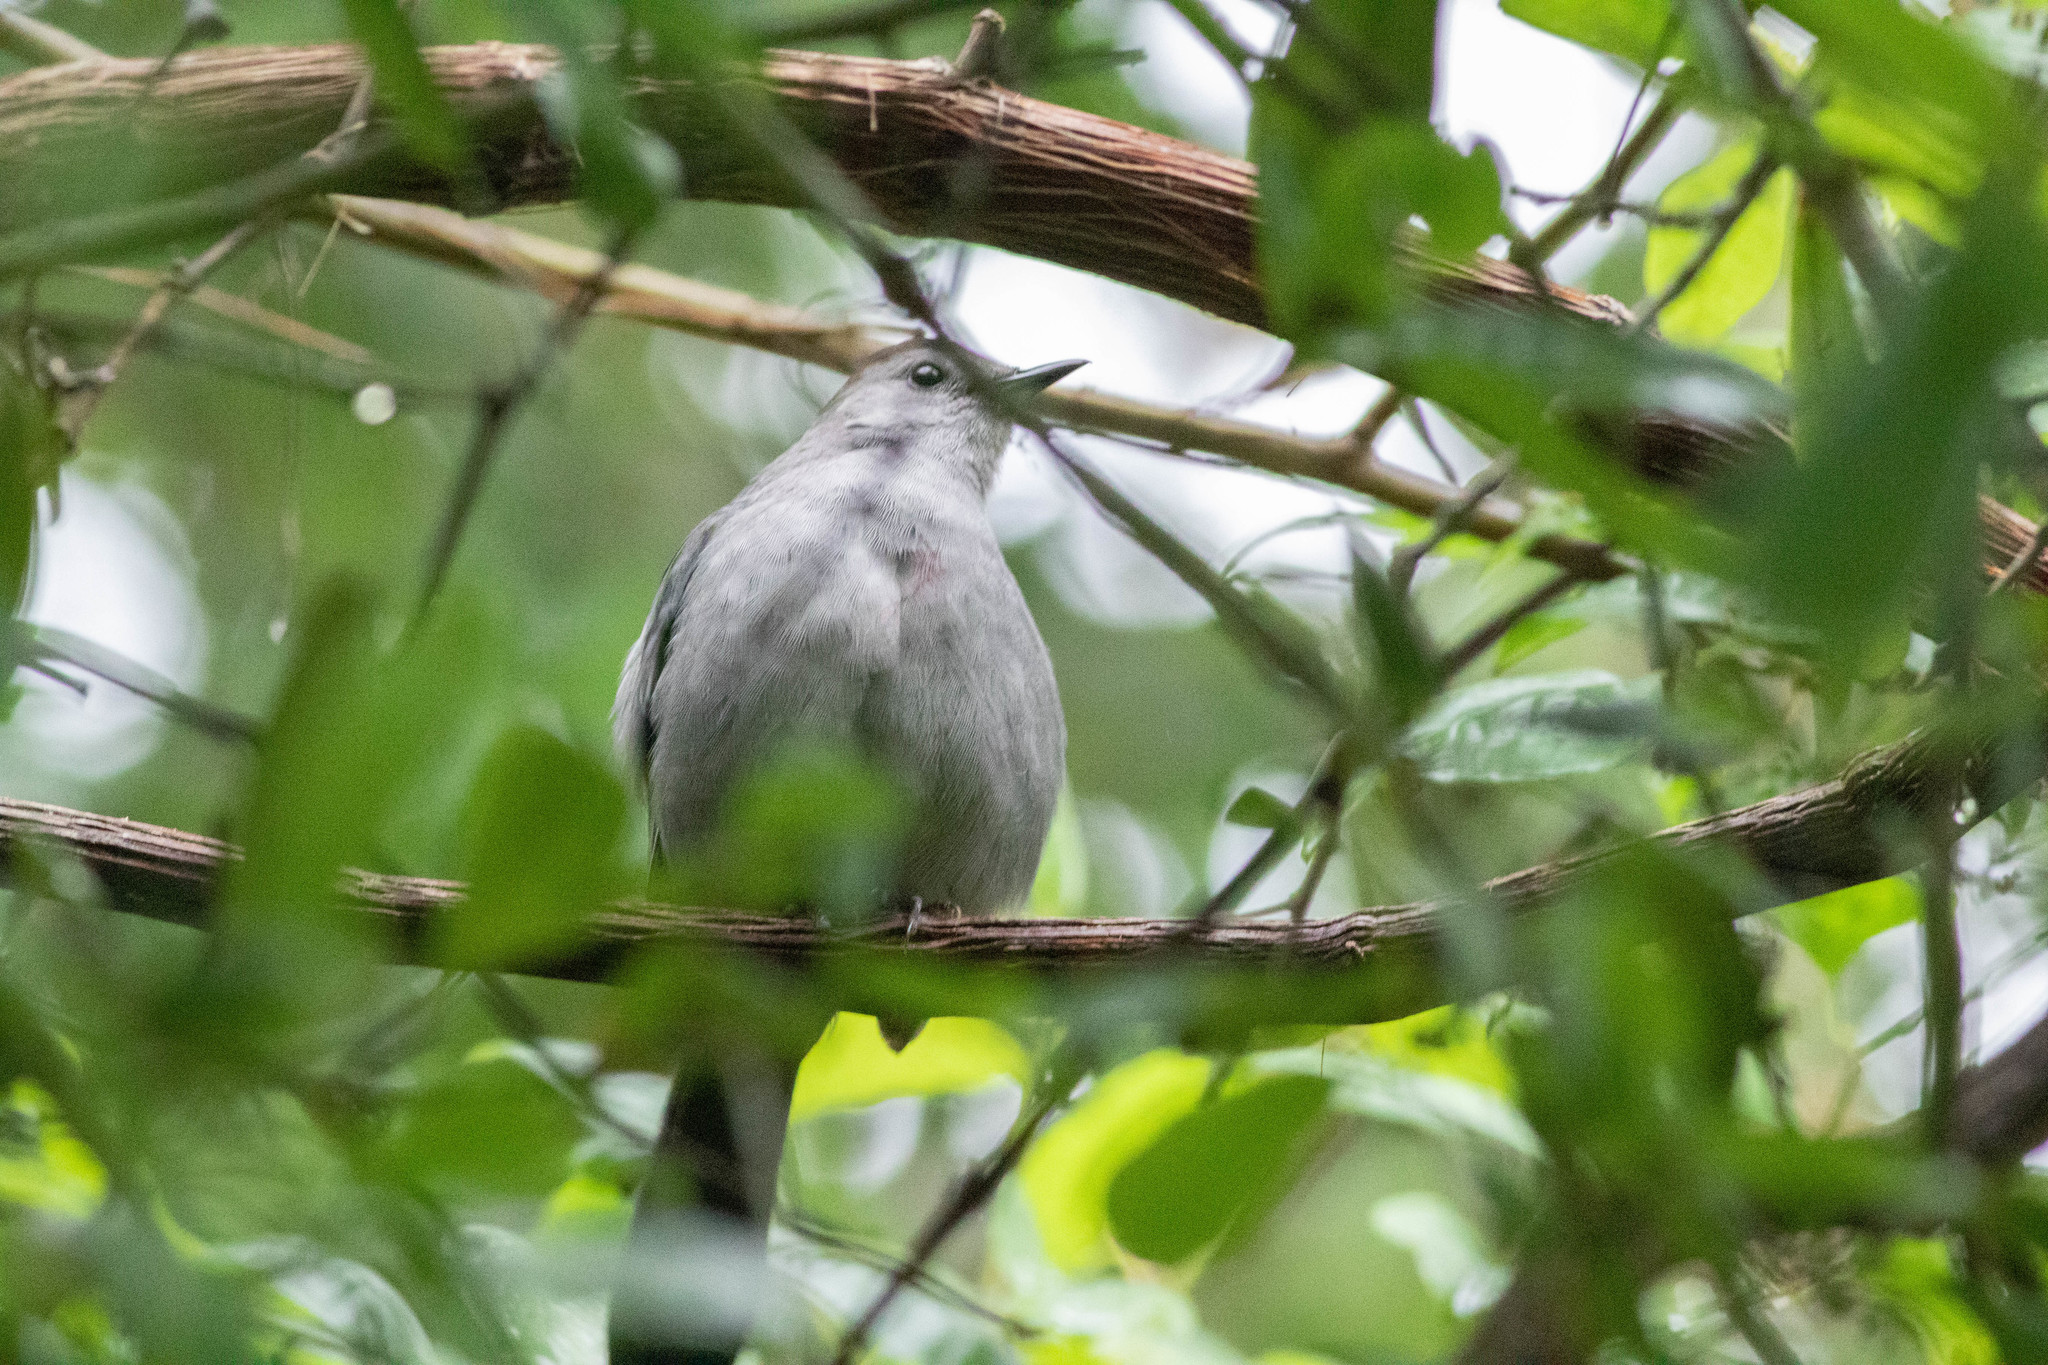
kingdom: Animalia
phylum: Chordata
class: Aves
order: Passeriformes
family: Mimidae
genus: Dumetella
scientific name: Dumetella carolinensis
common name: Gray catbird
